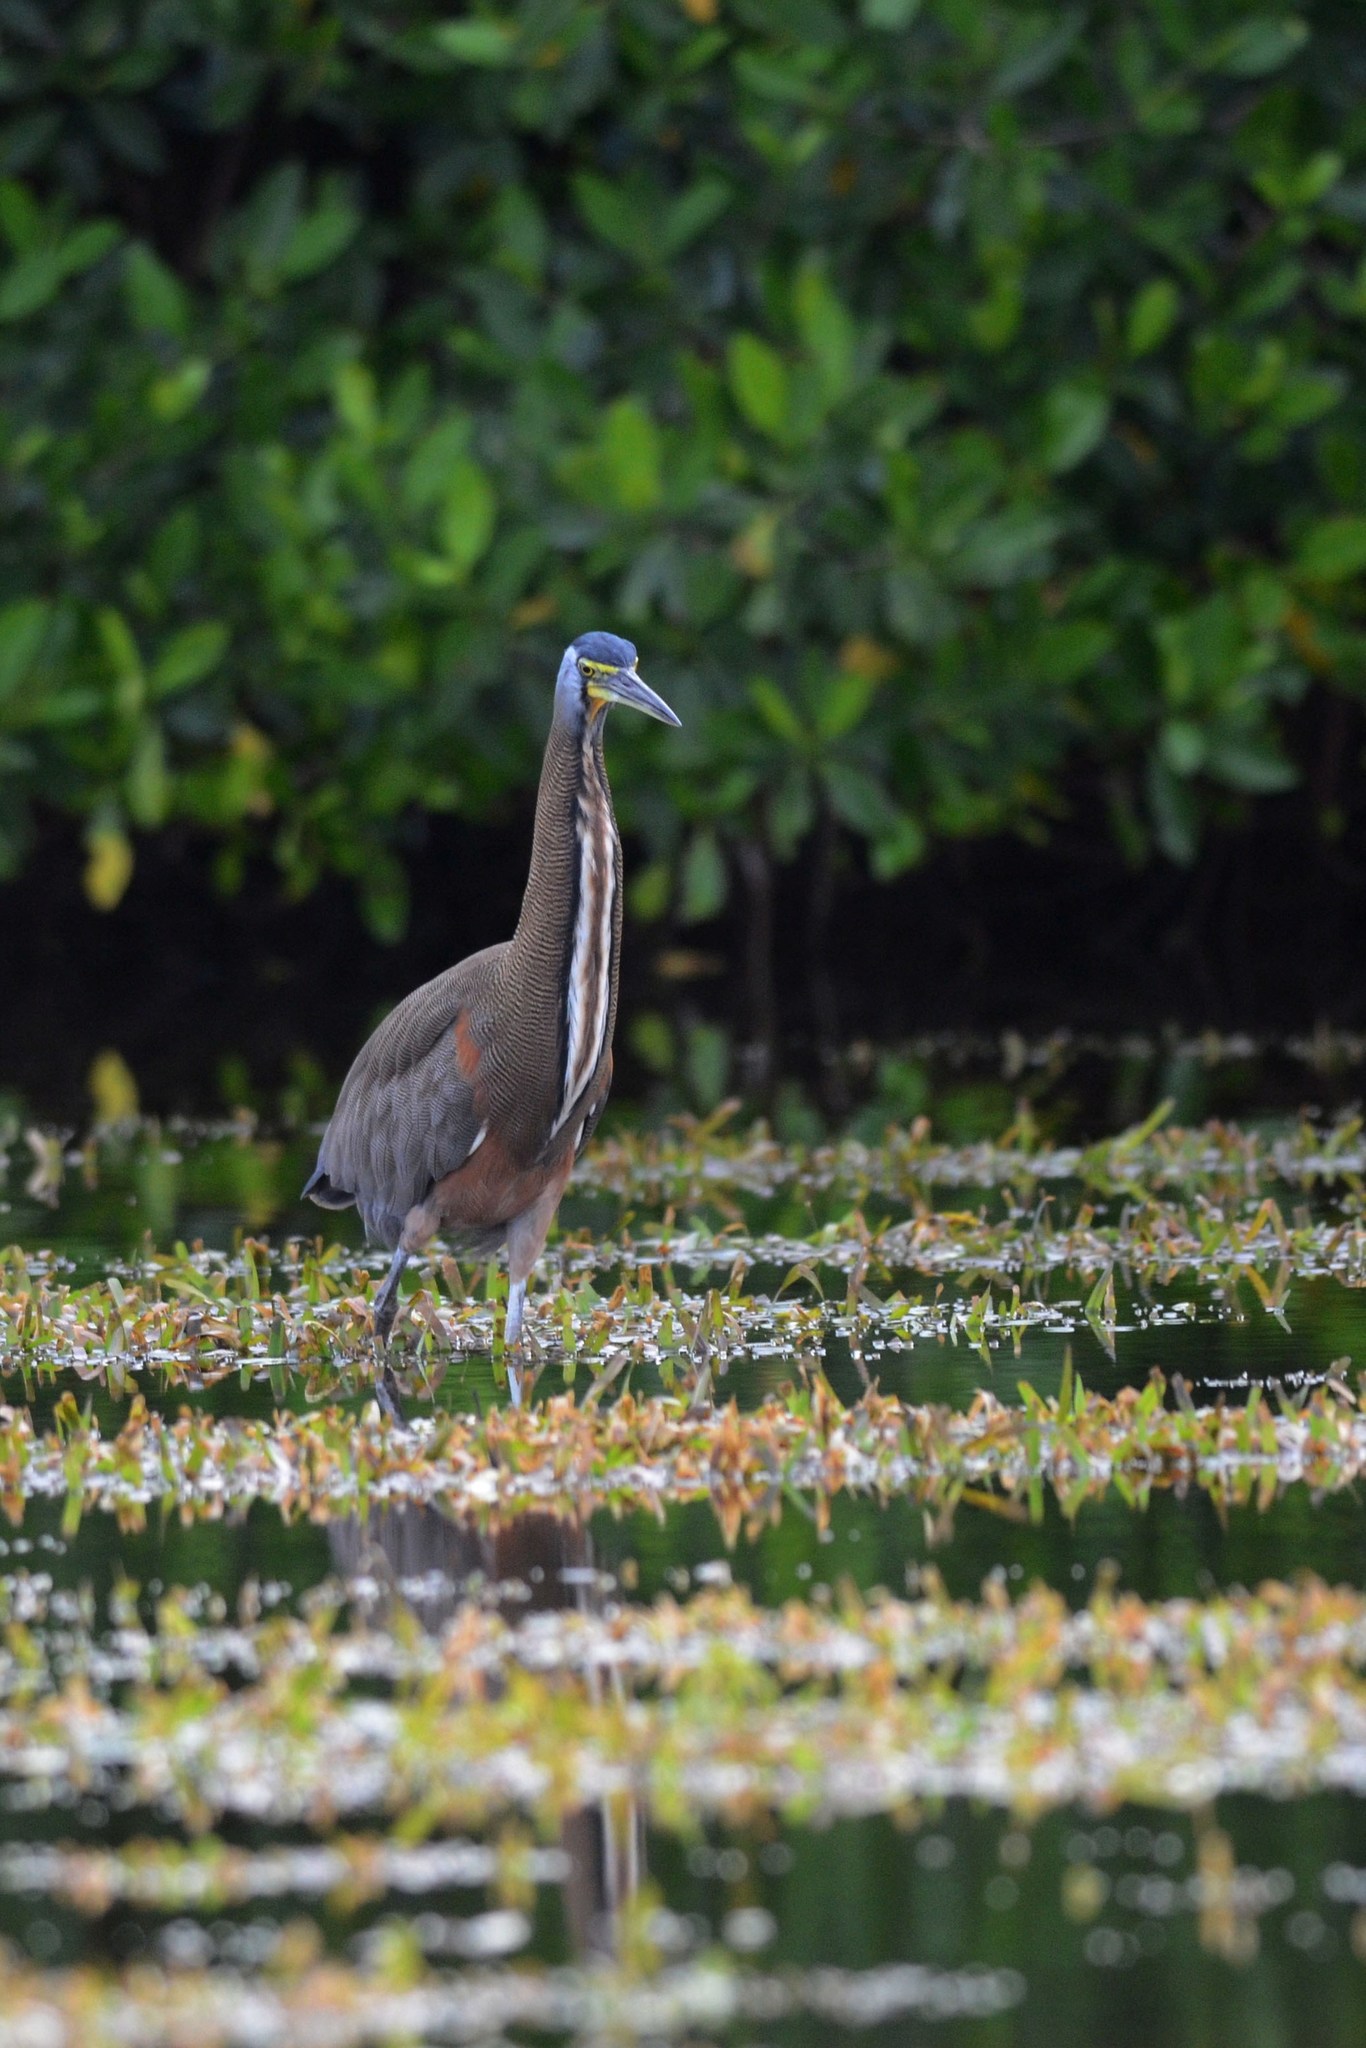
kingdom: Animalia
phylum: Chordata
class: Aves
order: Pelecaniformes
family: Ardeidae
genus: Tigrisoma
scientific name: Tigrisoma mexicanum
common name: Bare-throated tiger-heron
